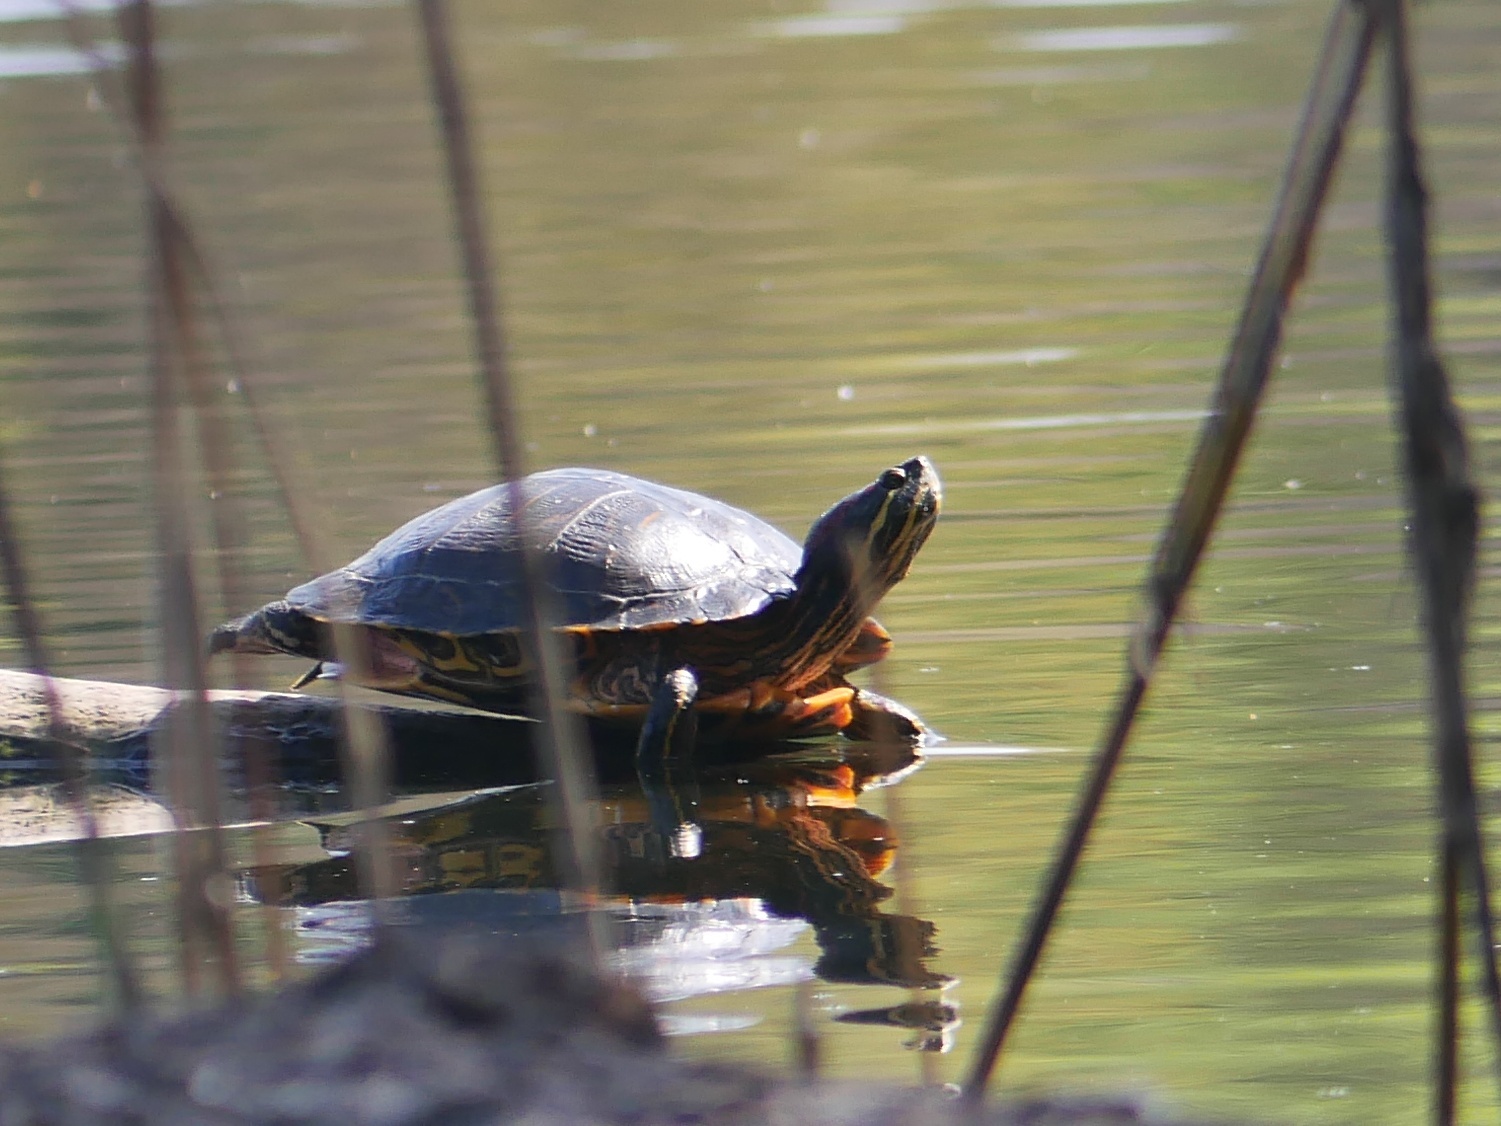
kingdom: Animalia
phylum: Chordata
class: Testudines
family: Emydidae
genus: Trachemys
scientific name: Trachemys scripta
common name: Slider
